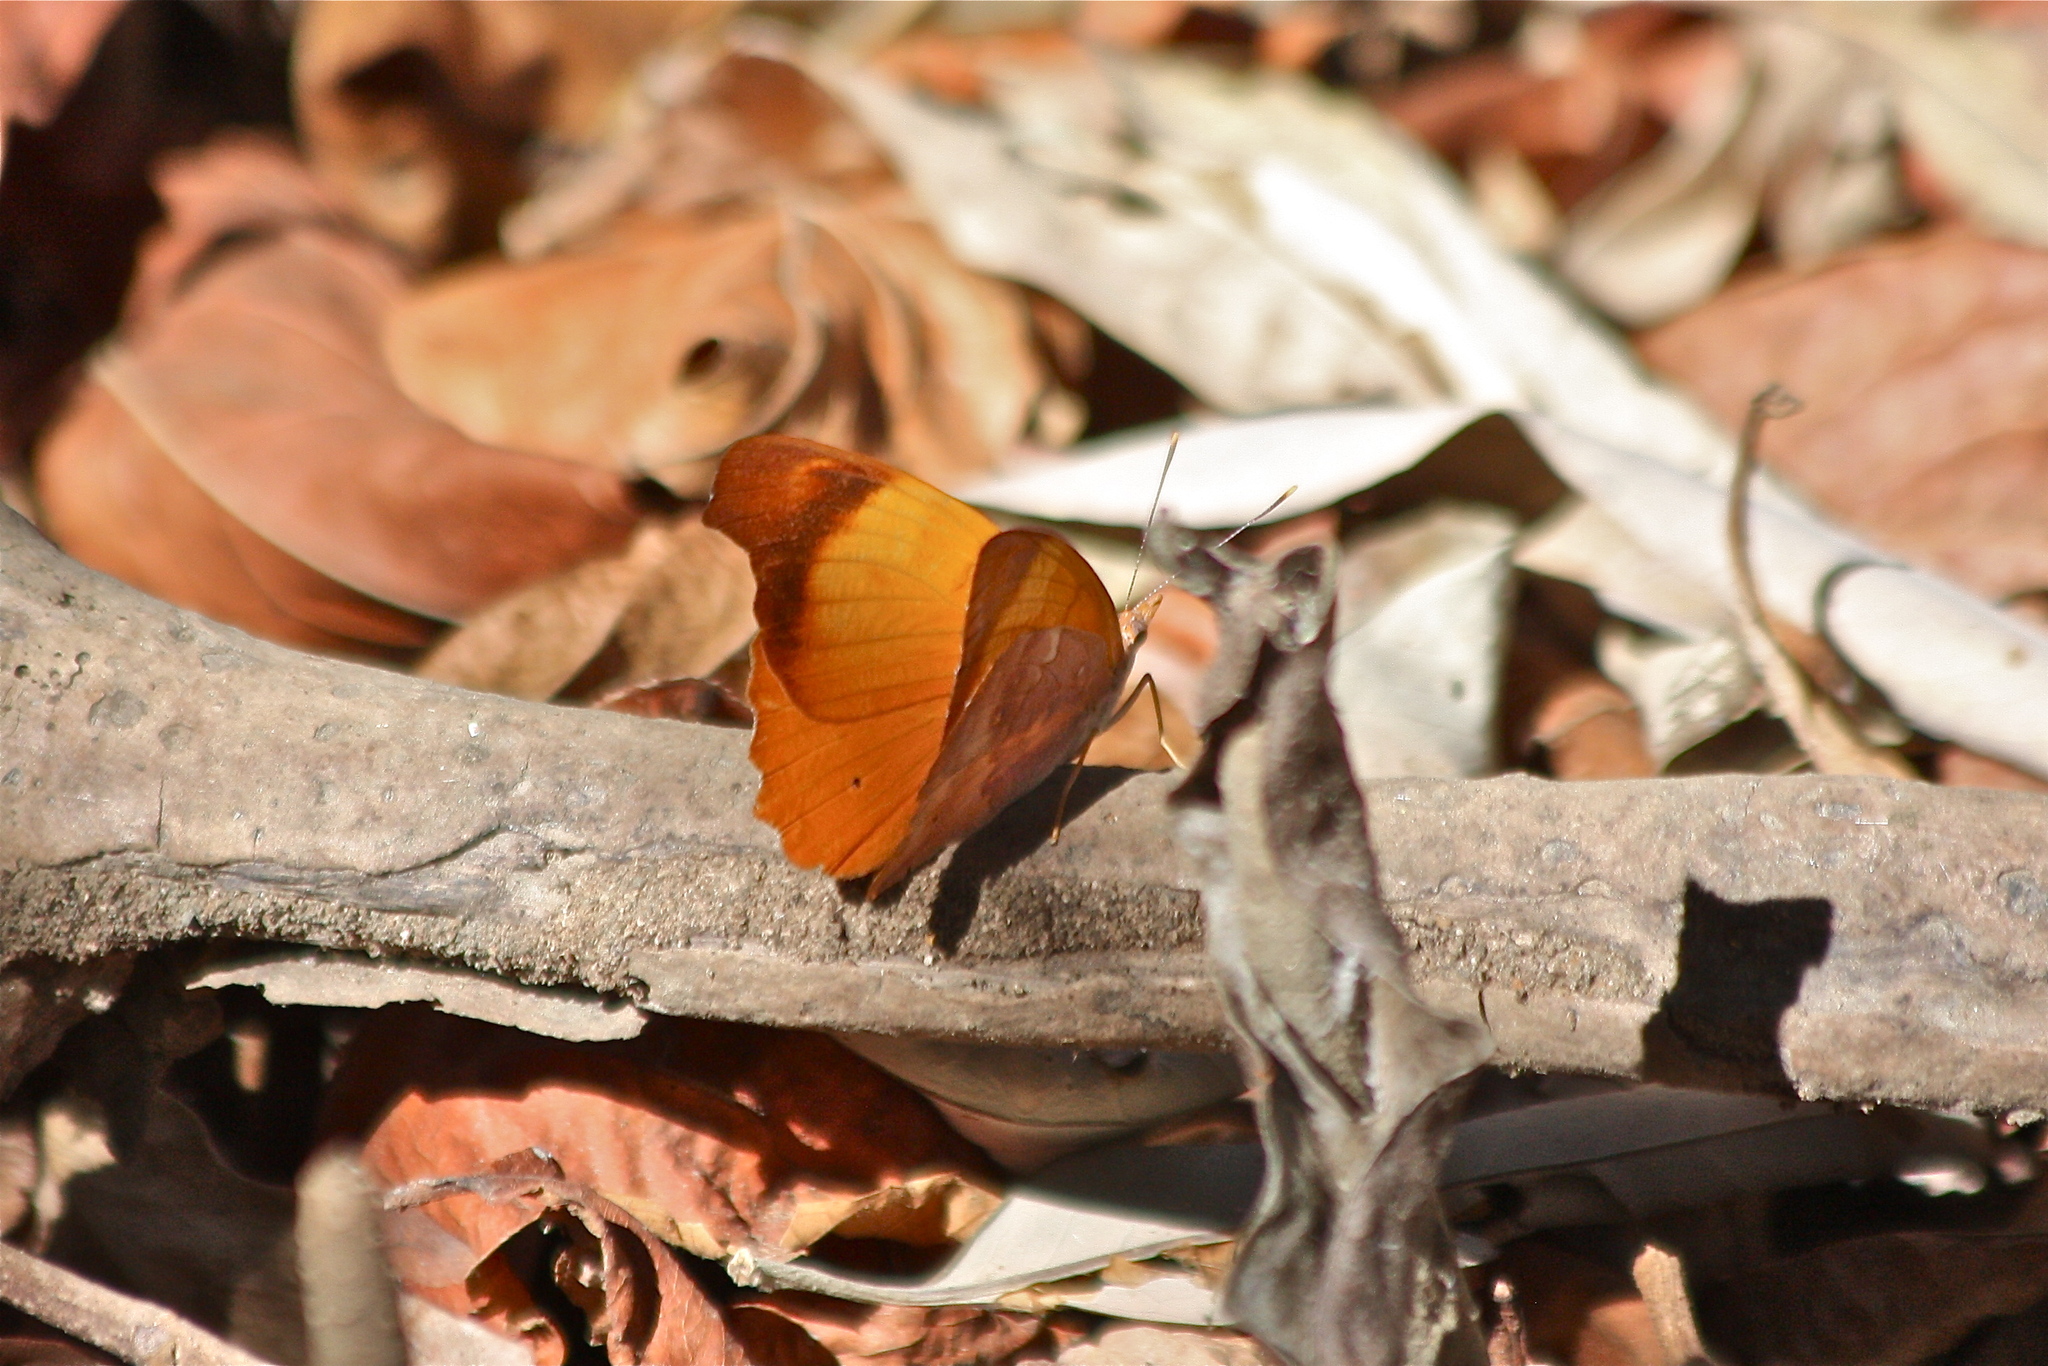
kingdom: Animalia
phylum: Arthropoda
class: Insecta
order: Lepidoptera
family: Nymphalidae
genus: Temenis
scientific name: Temenis laothoe
